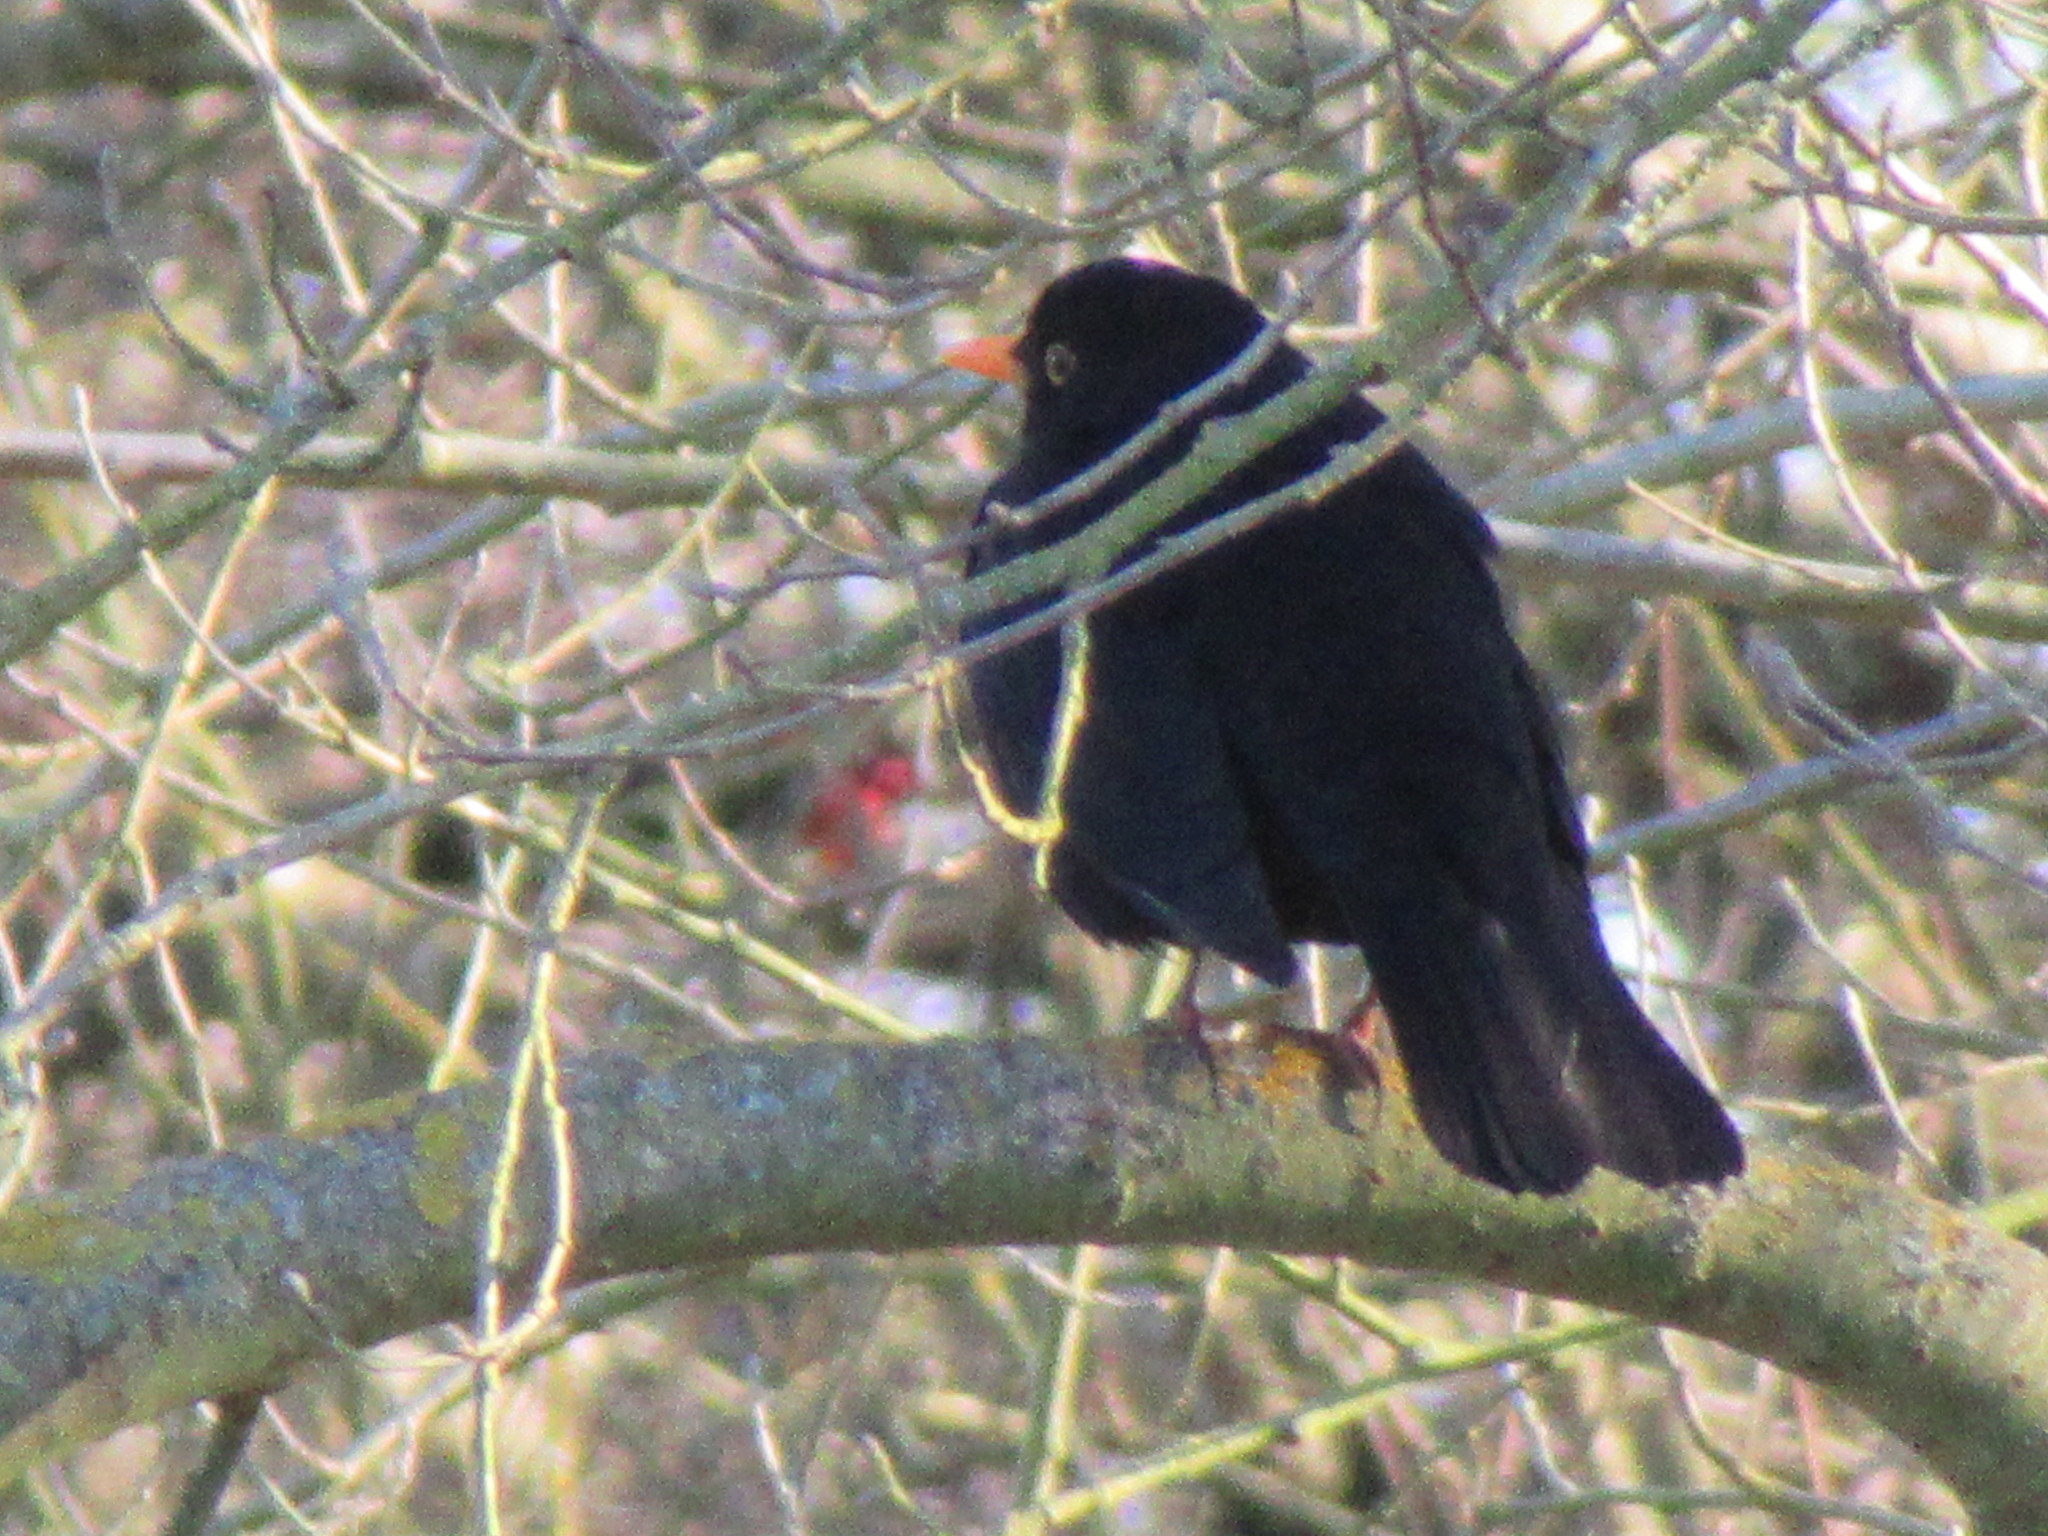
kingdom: Animalia
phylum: Chordata
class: Aves
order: Passeriformes
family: Turdidae
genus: Turdus
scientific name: Turdus merula
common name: Common blackbird
